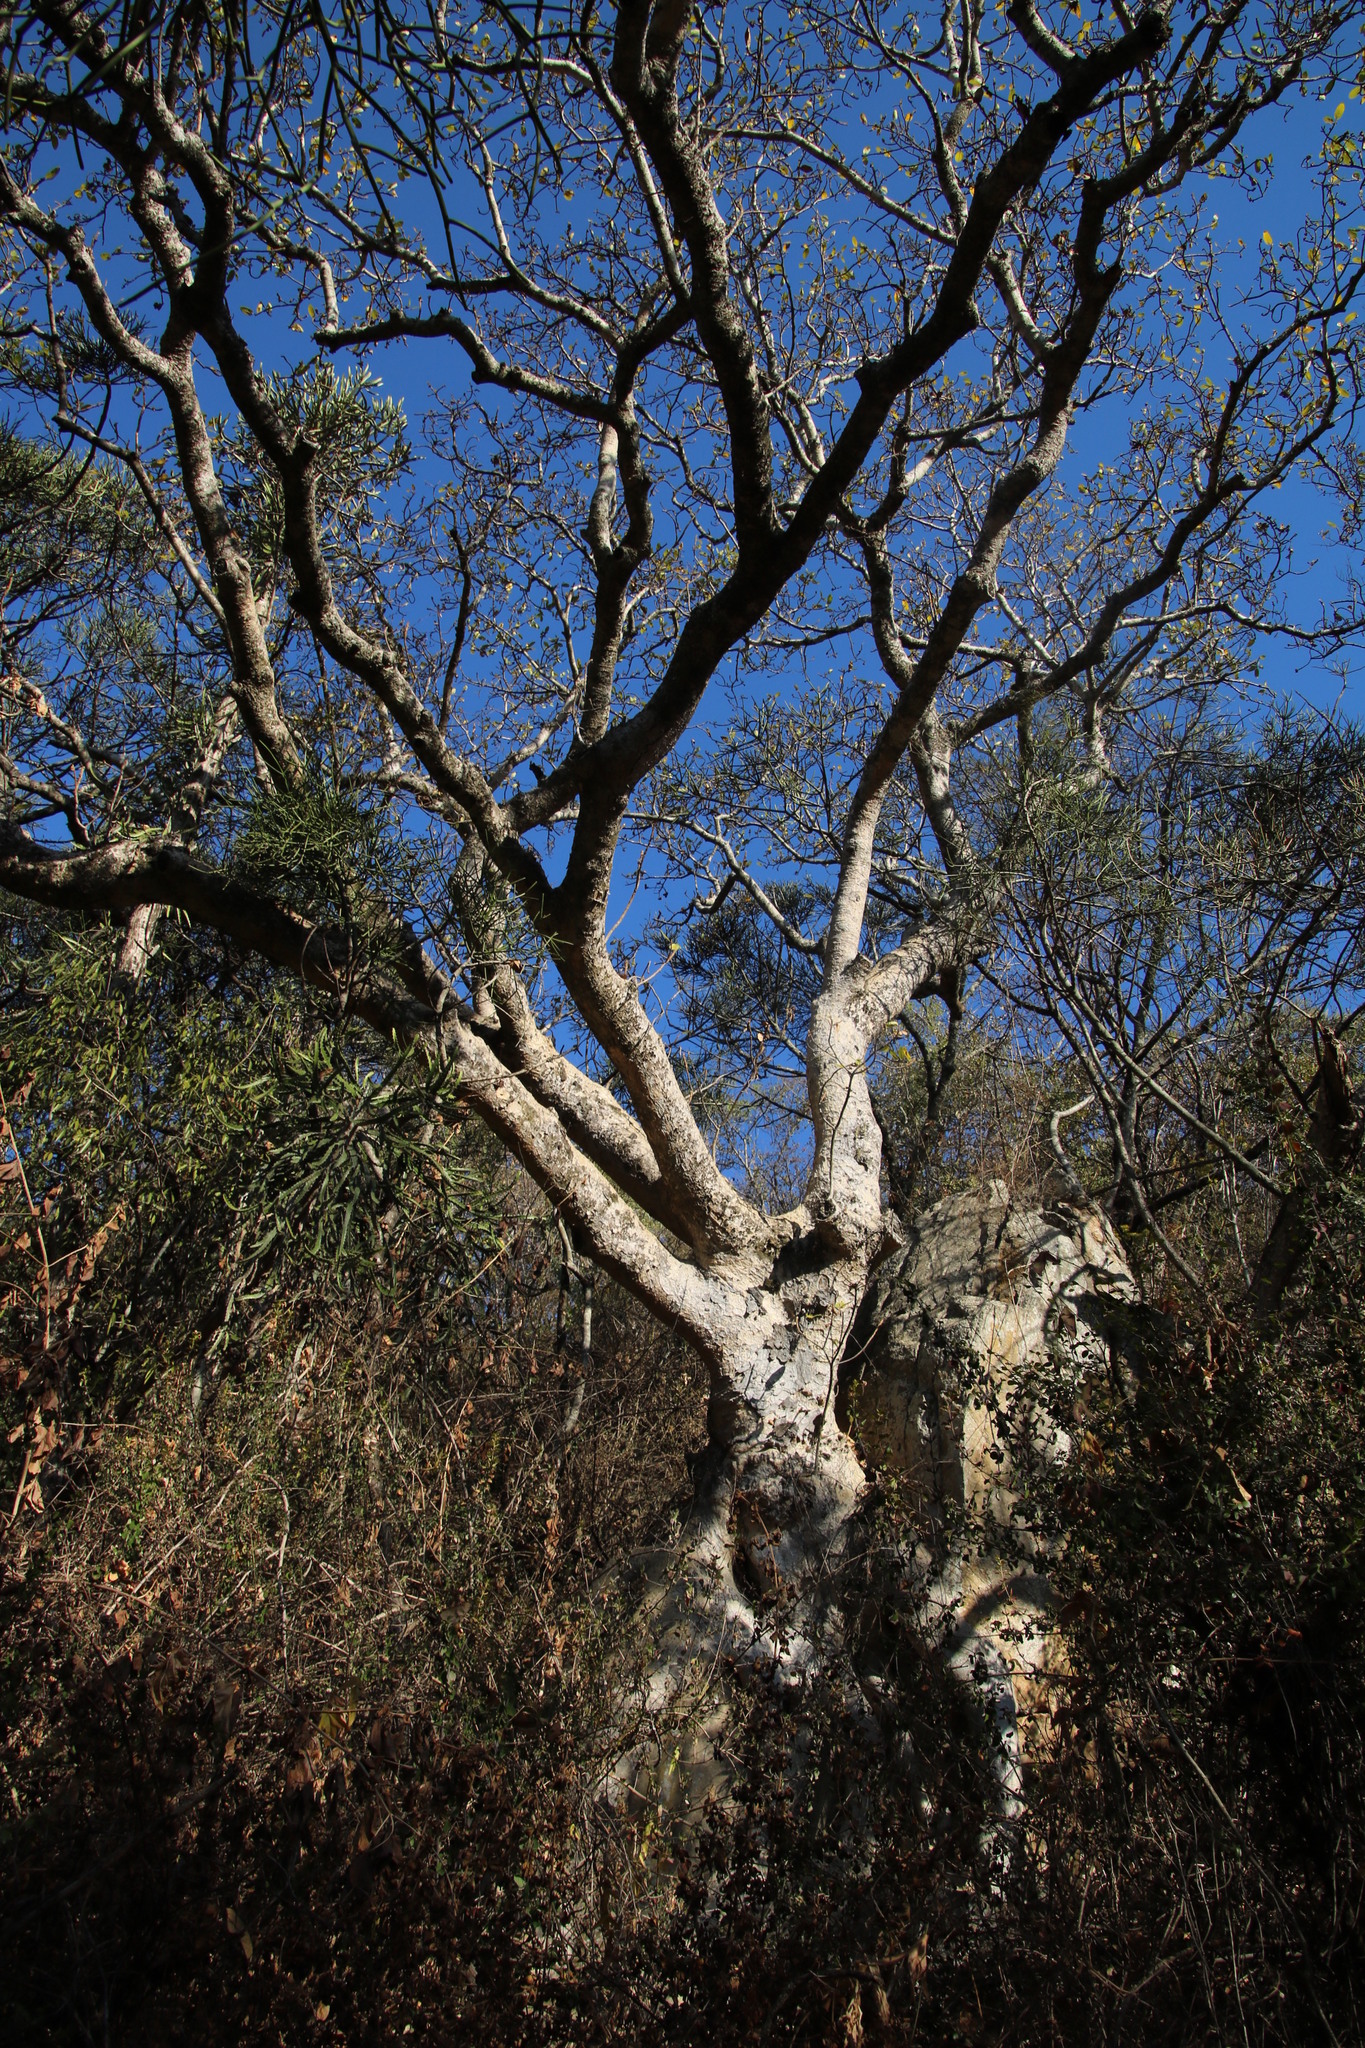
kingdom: Plantae
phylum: Tracheophyta
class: Magnoliopsida
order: Rosales
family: Moraceae
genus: Ficus
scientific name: Ficus glumosa
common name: Hairy rock fig
